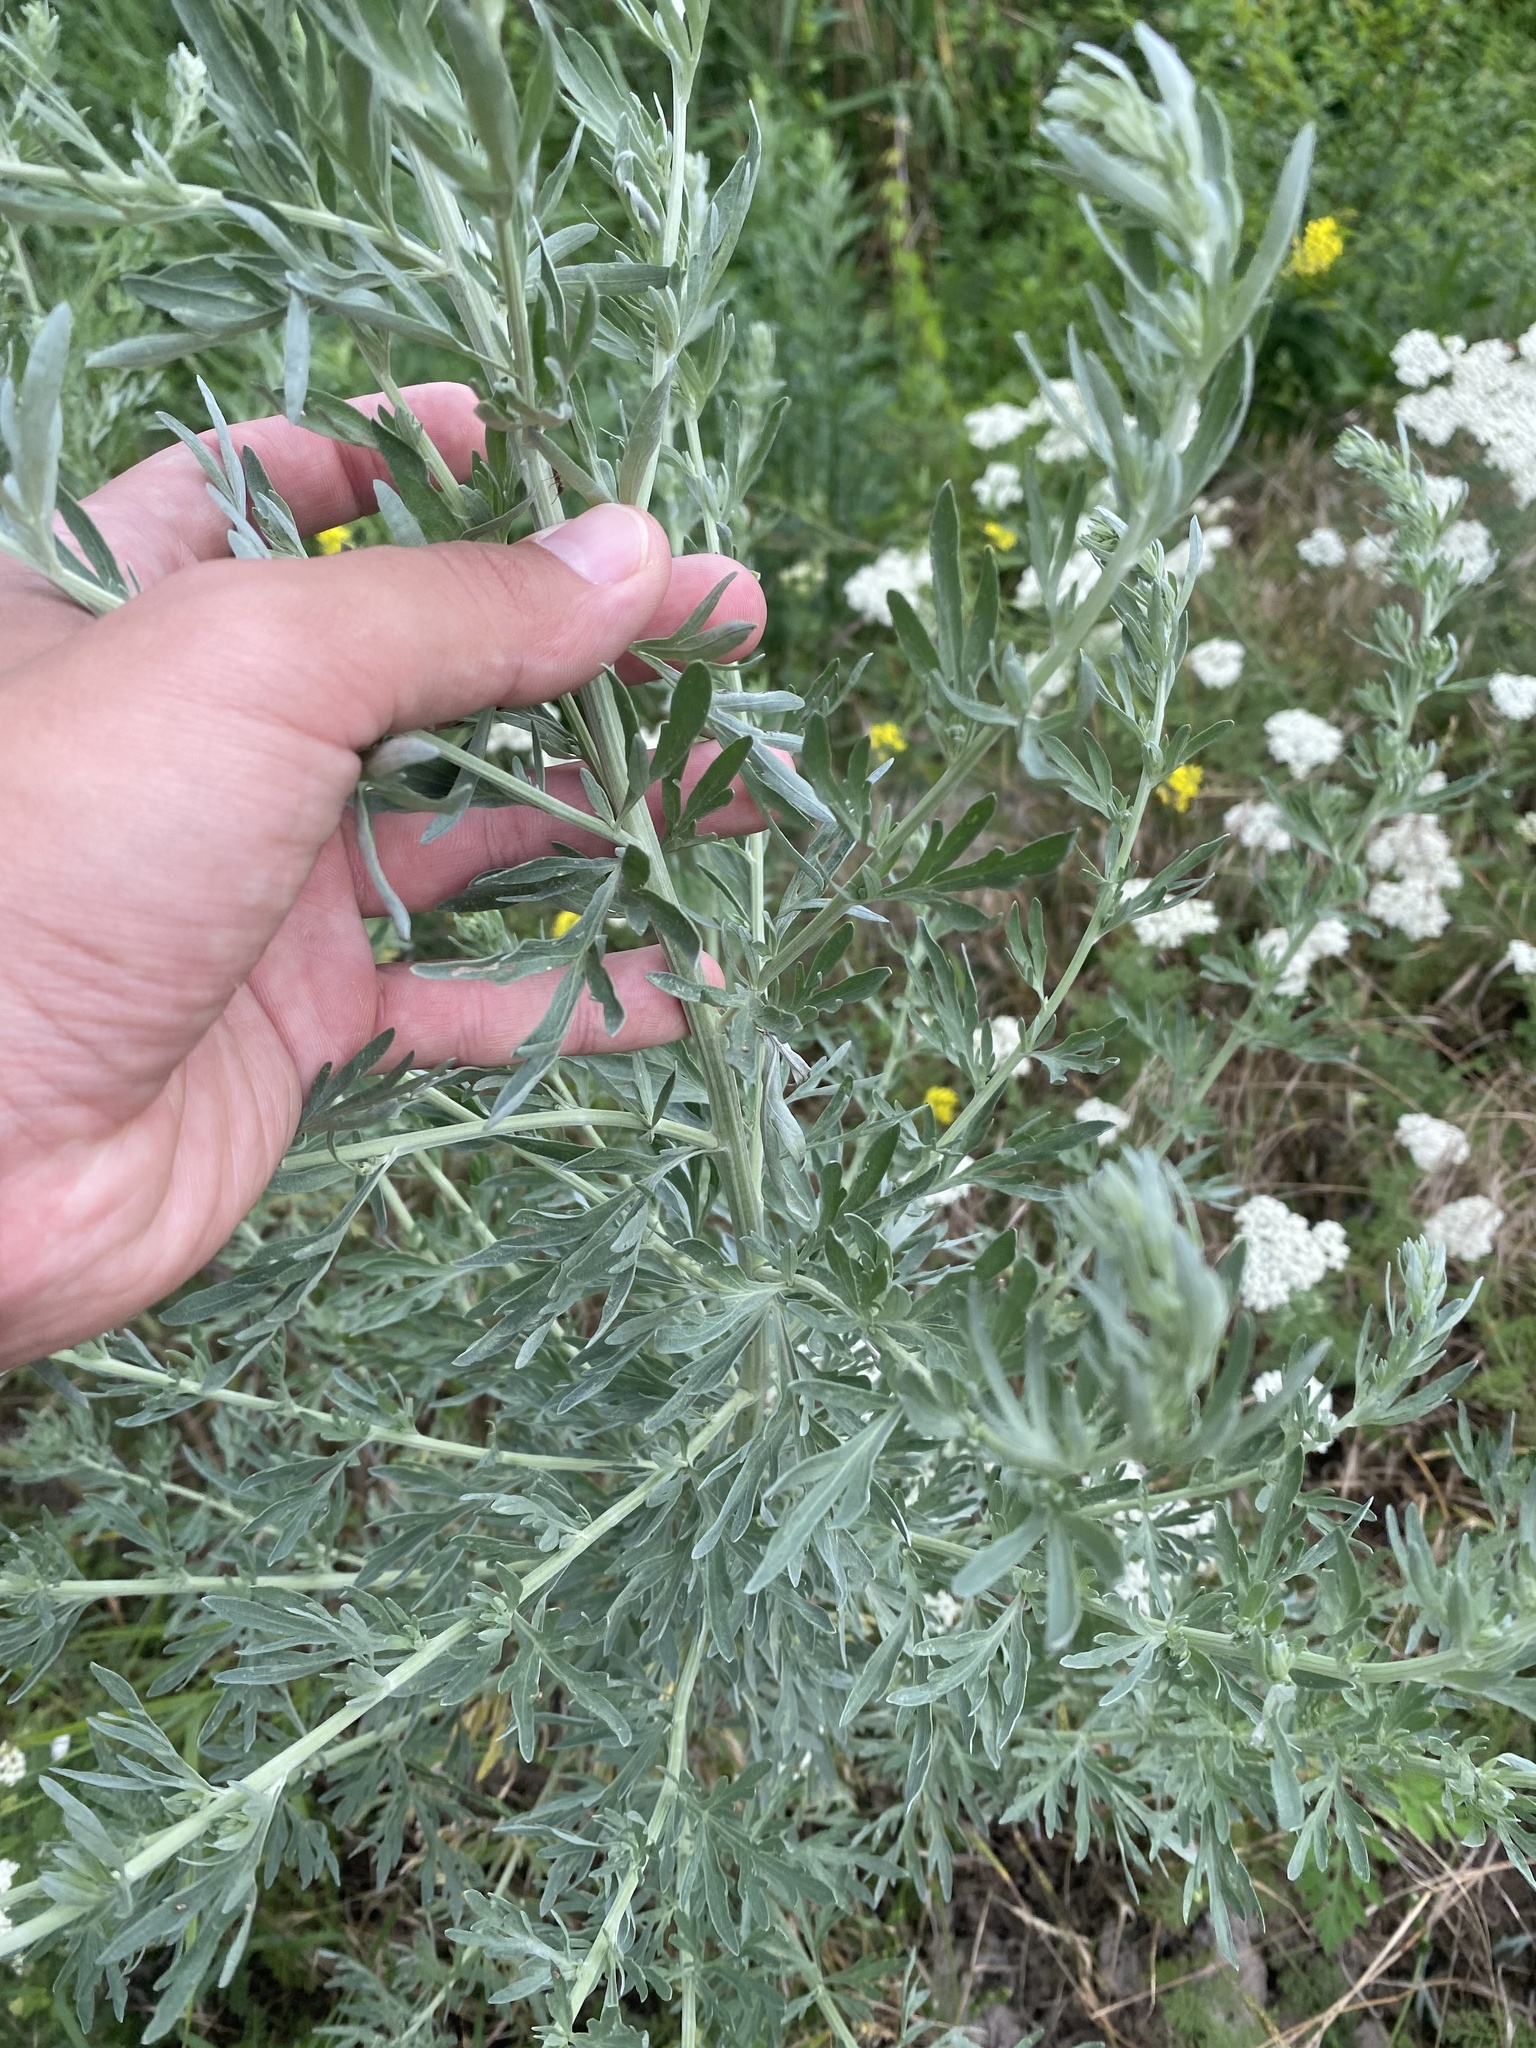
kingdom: Plantae
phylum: Tracheophyta
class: Magnoliopsida
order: Asterales
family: Asteraceae
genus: Artemisia
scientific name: Artemisia absinthium
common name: Wormwood
